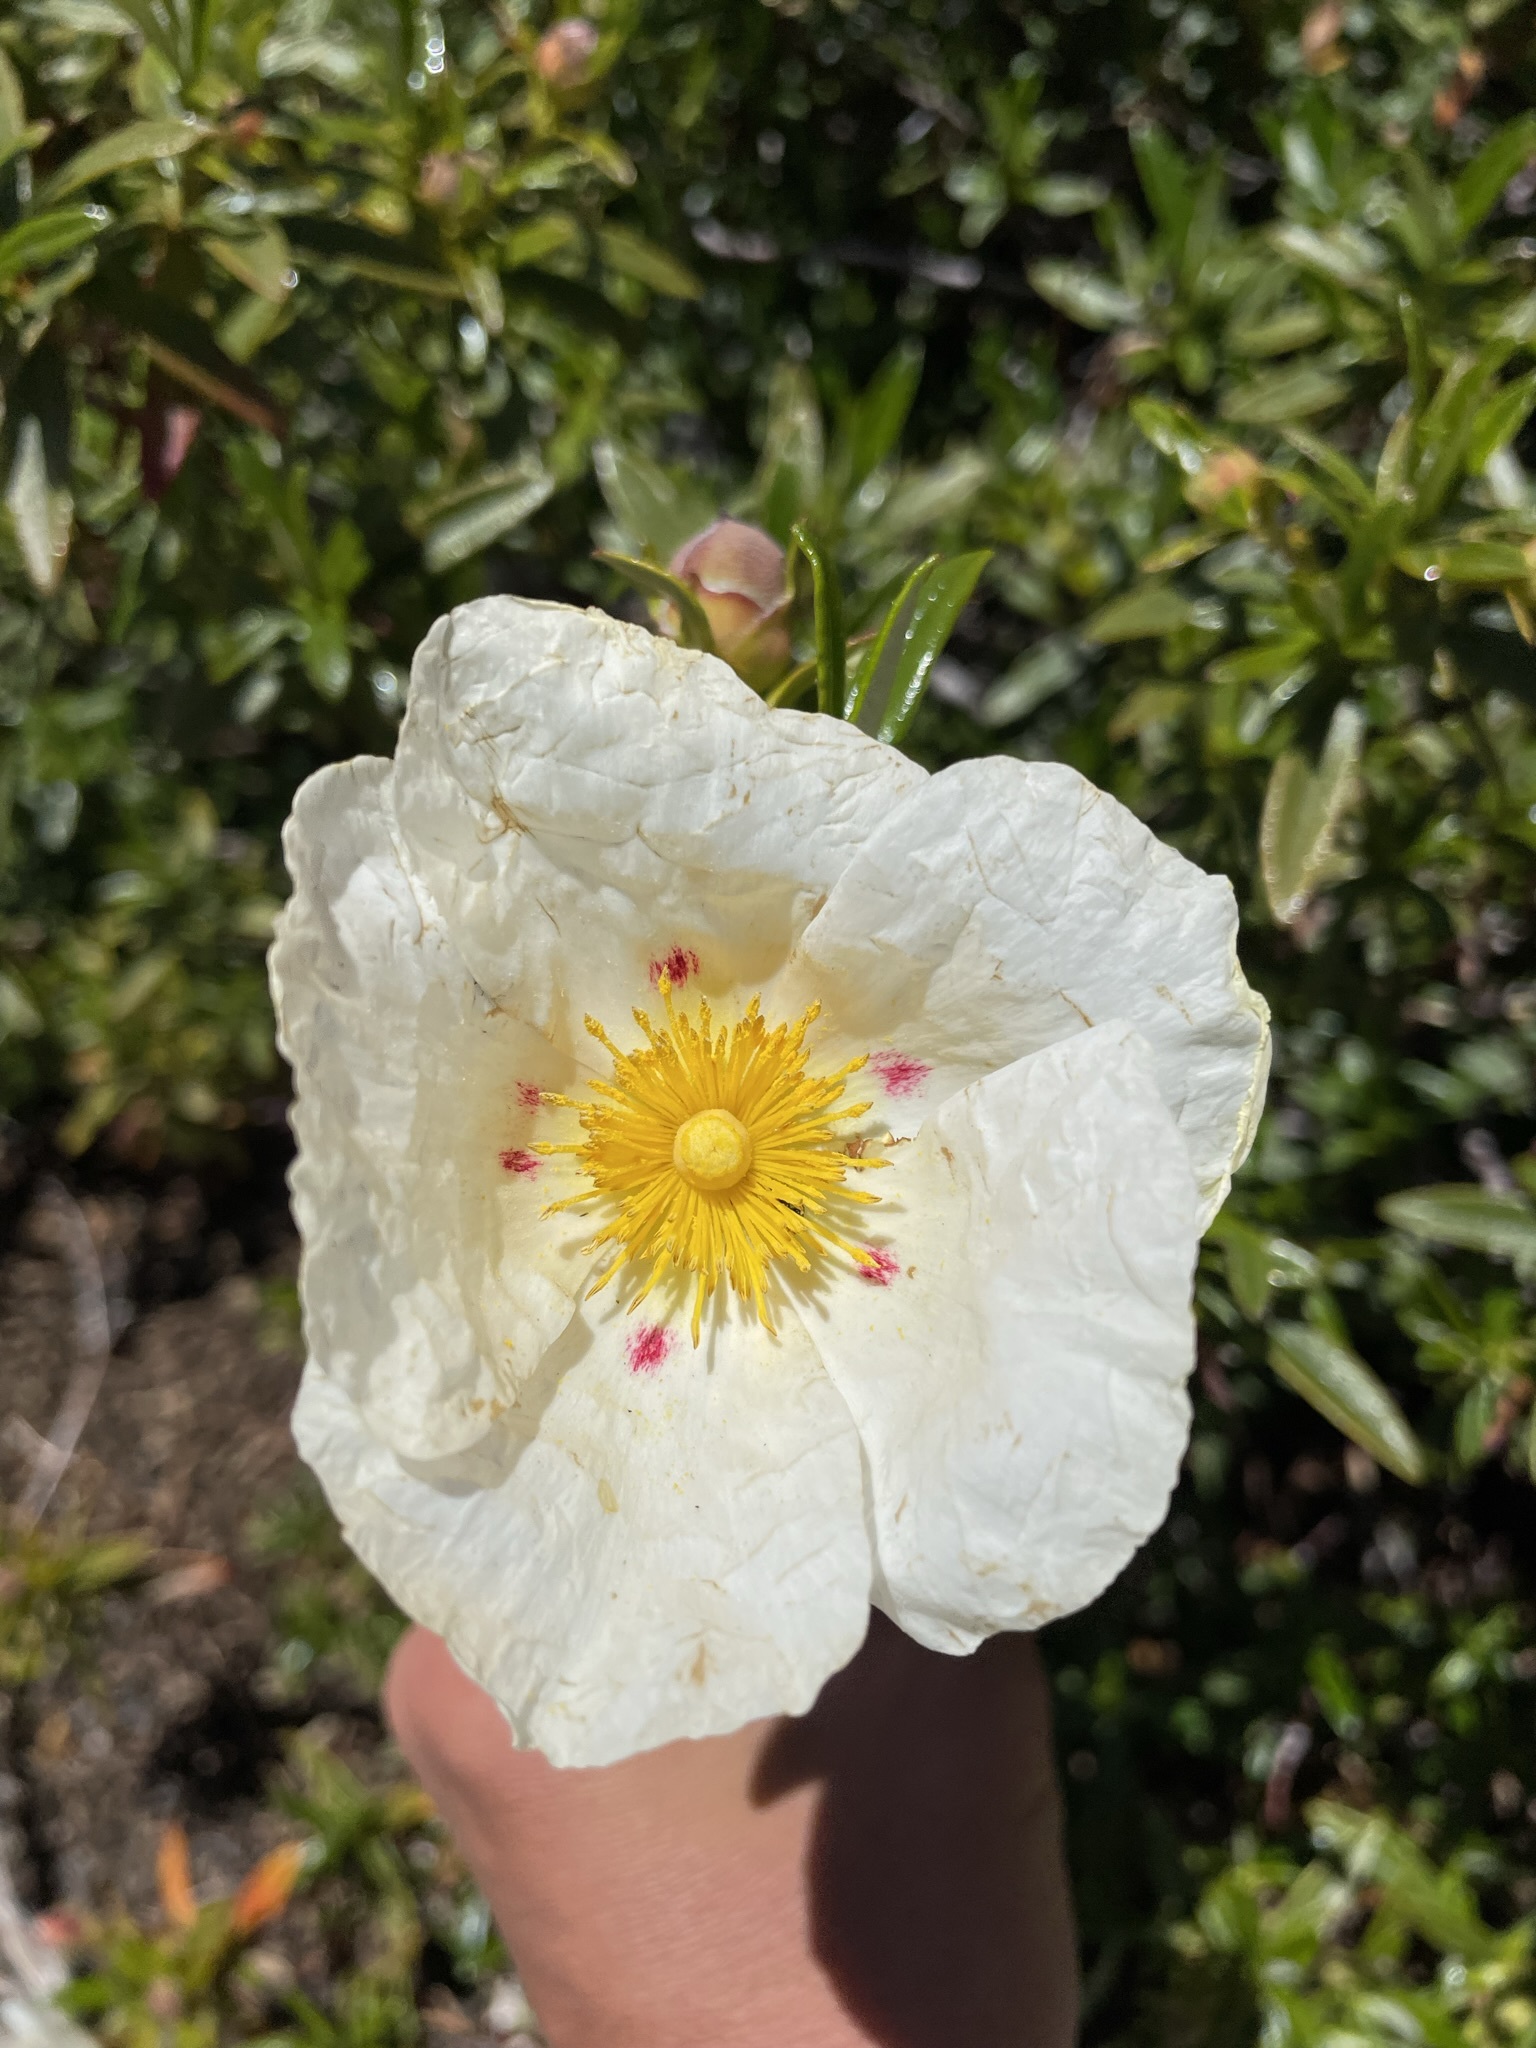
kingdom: Plantae
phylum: Tracheophyta
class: Magnoliopsida
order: Malvales
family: Cistaceae
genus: Cistus
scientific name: Cistus ladanifer
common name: Common gum cistus
